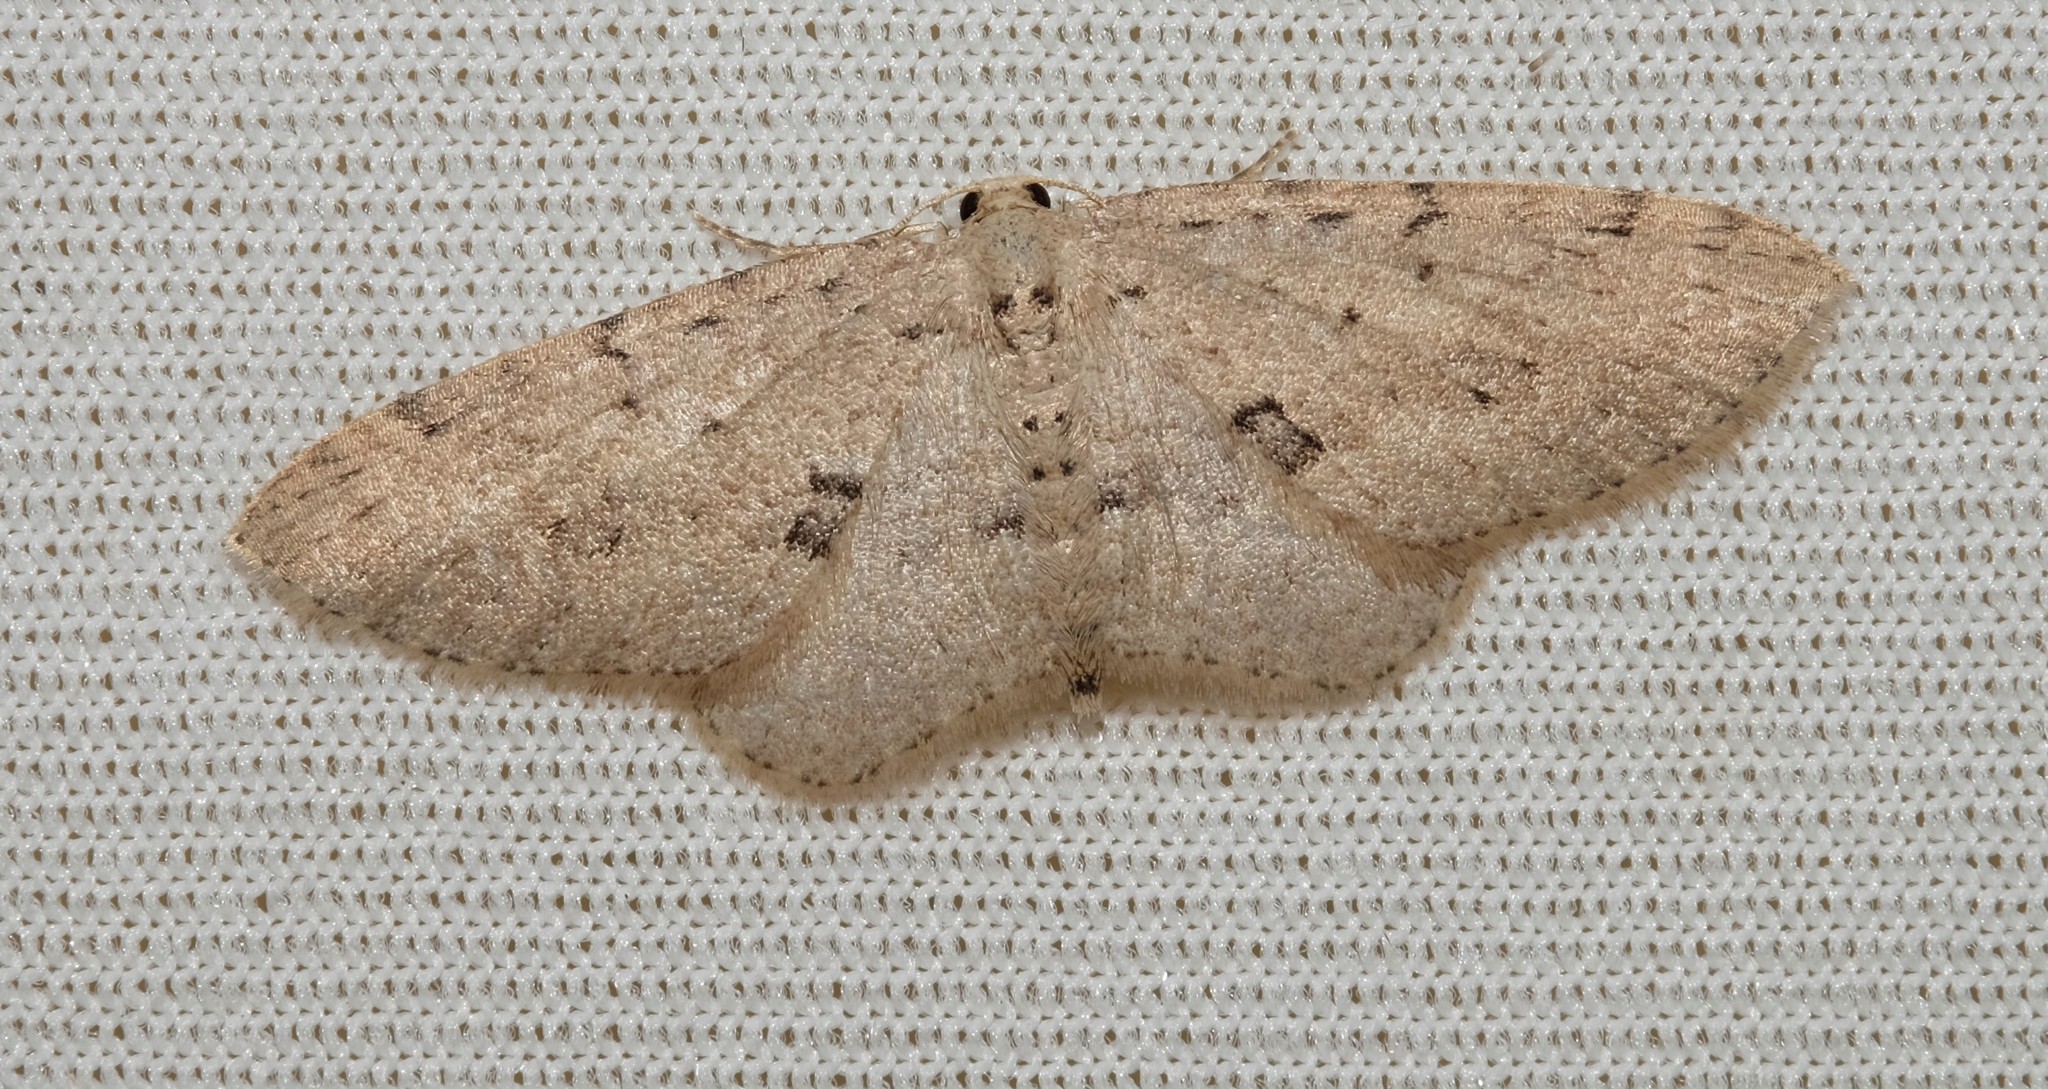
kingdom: Animalia
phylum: Arthropoda
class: Insecta
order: Lepidoptera
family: Geometridae
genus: Poecilasthena
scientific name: Poecilasthena scoliota
